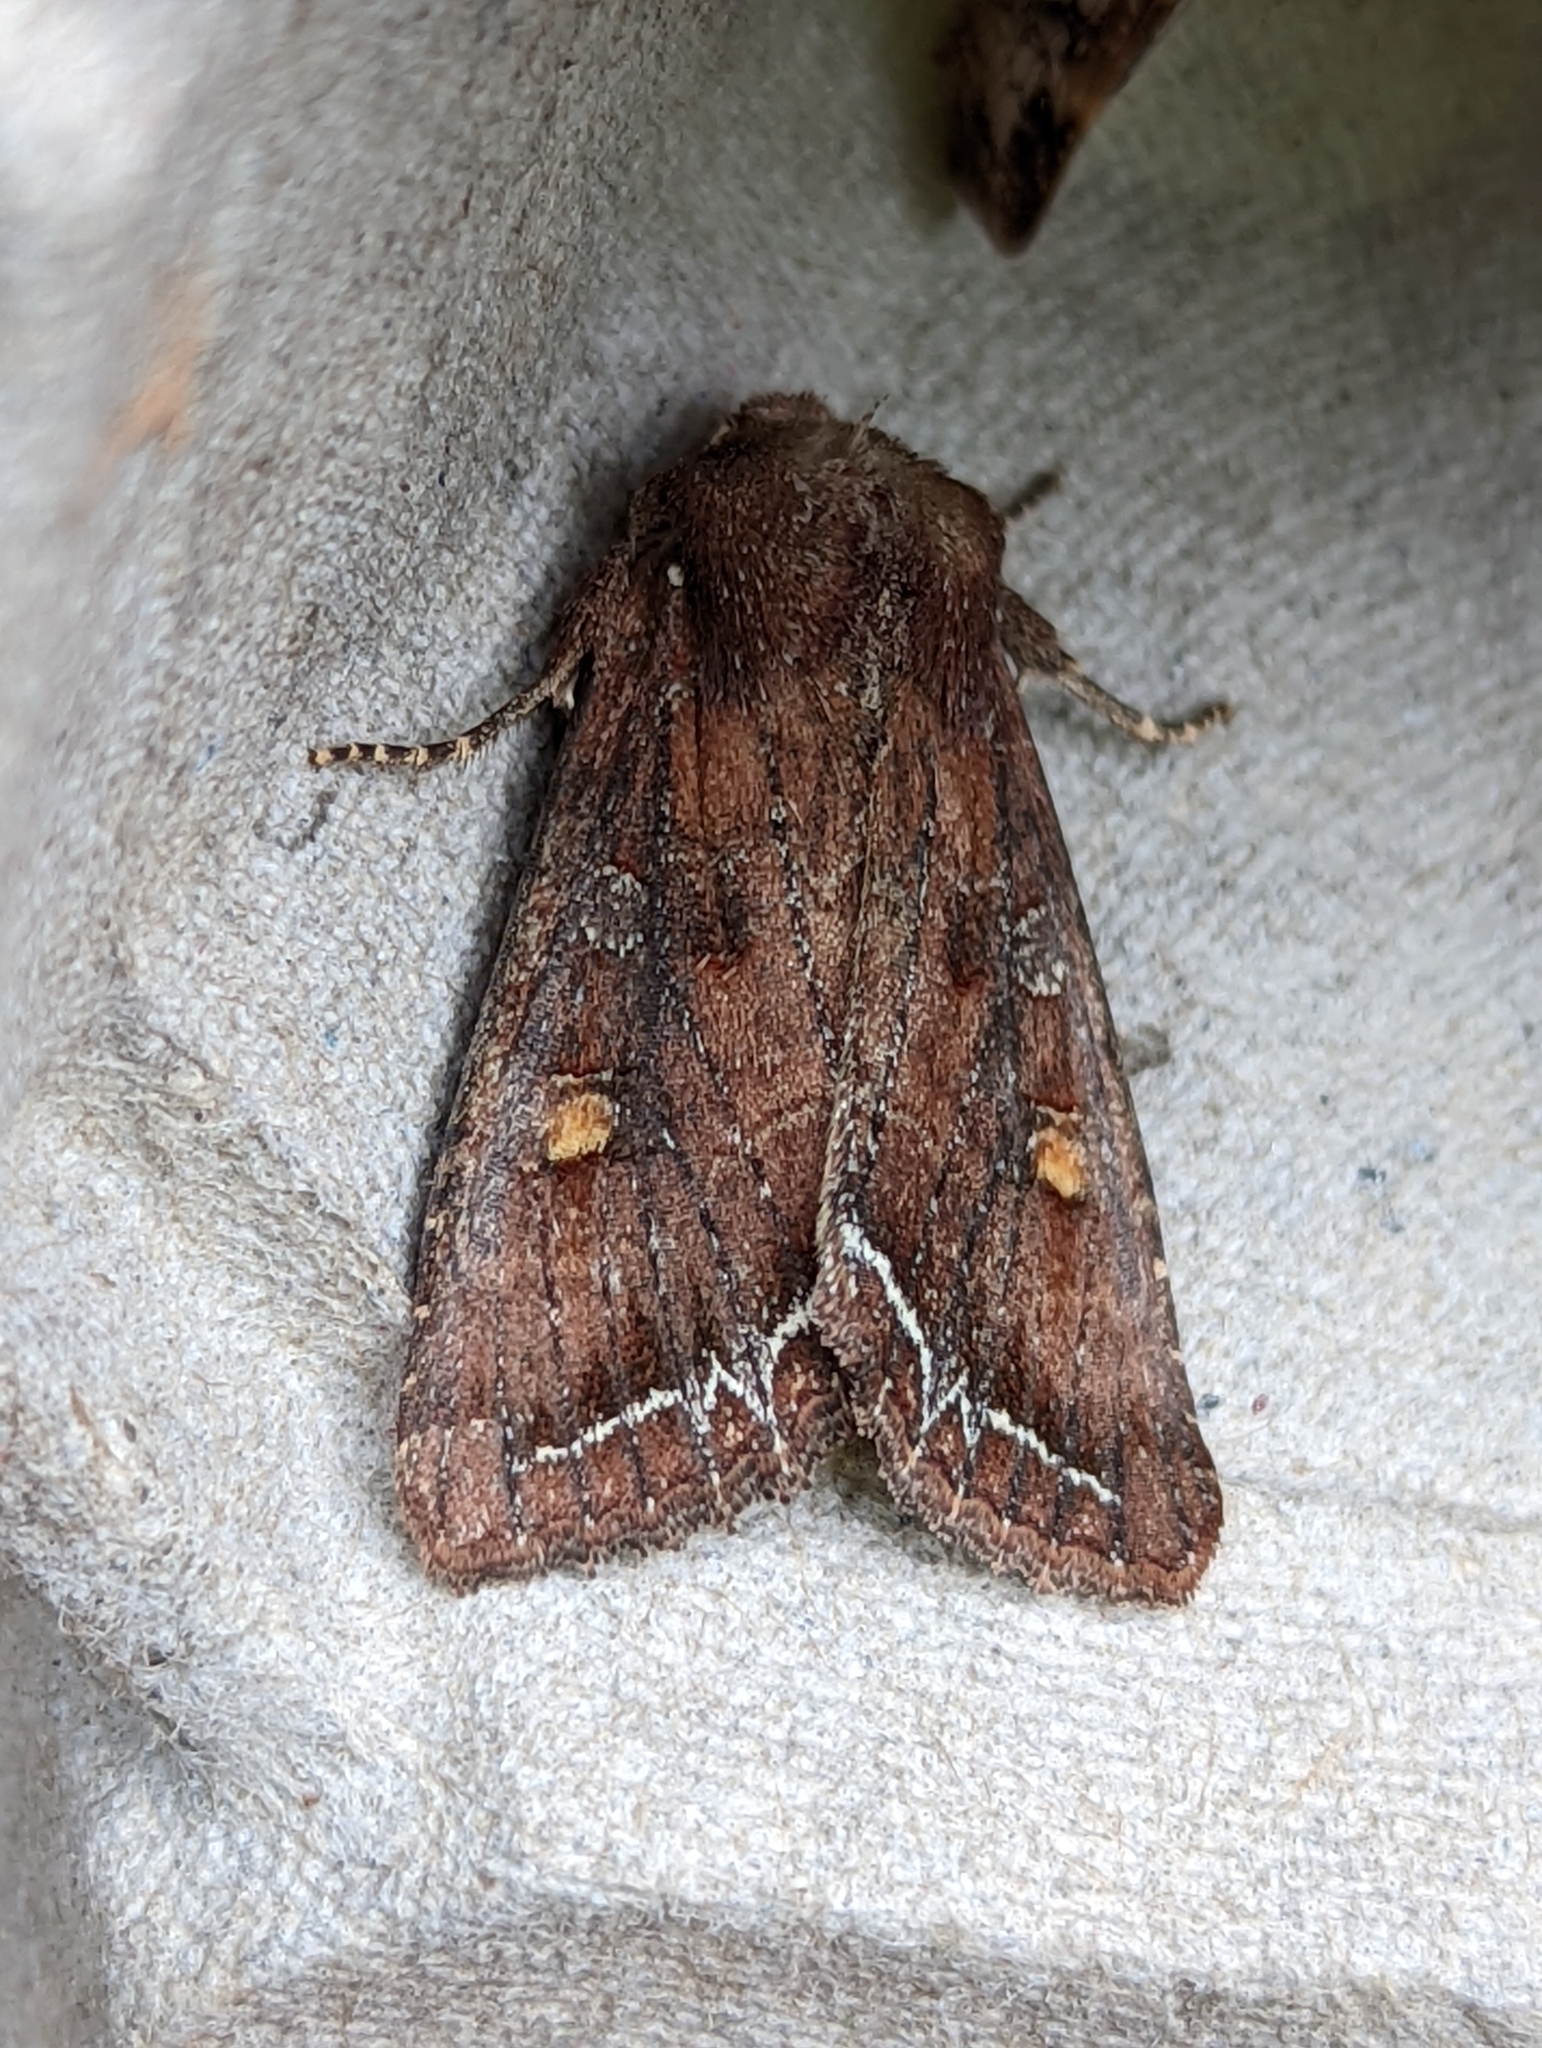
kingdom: Animalia
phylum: Arthropoda
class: Insecta
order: Lepidoptera
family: Noctuidae
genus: Lacanobia
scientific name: Lacanobia oleracea
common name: Bright-line brown-eye
